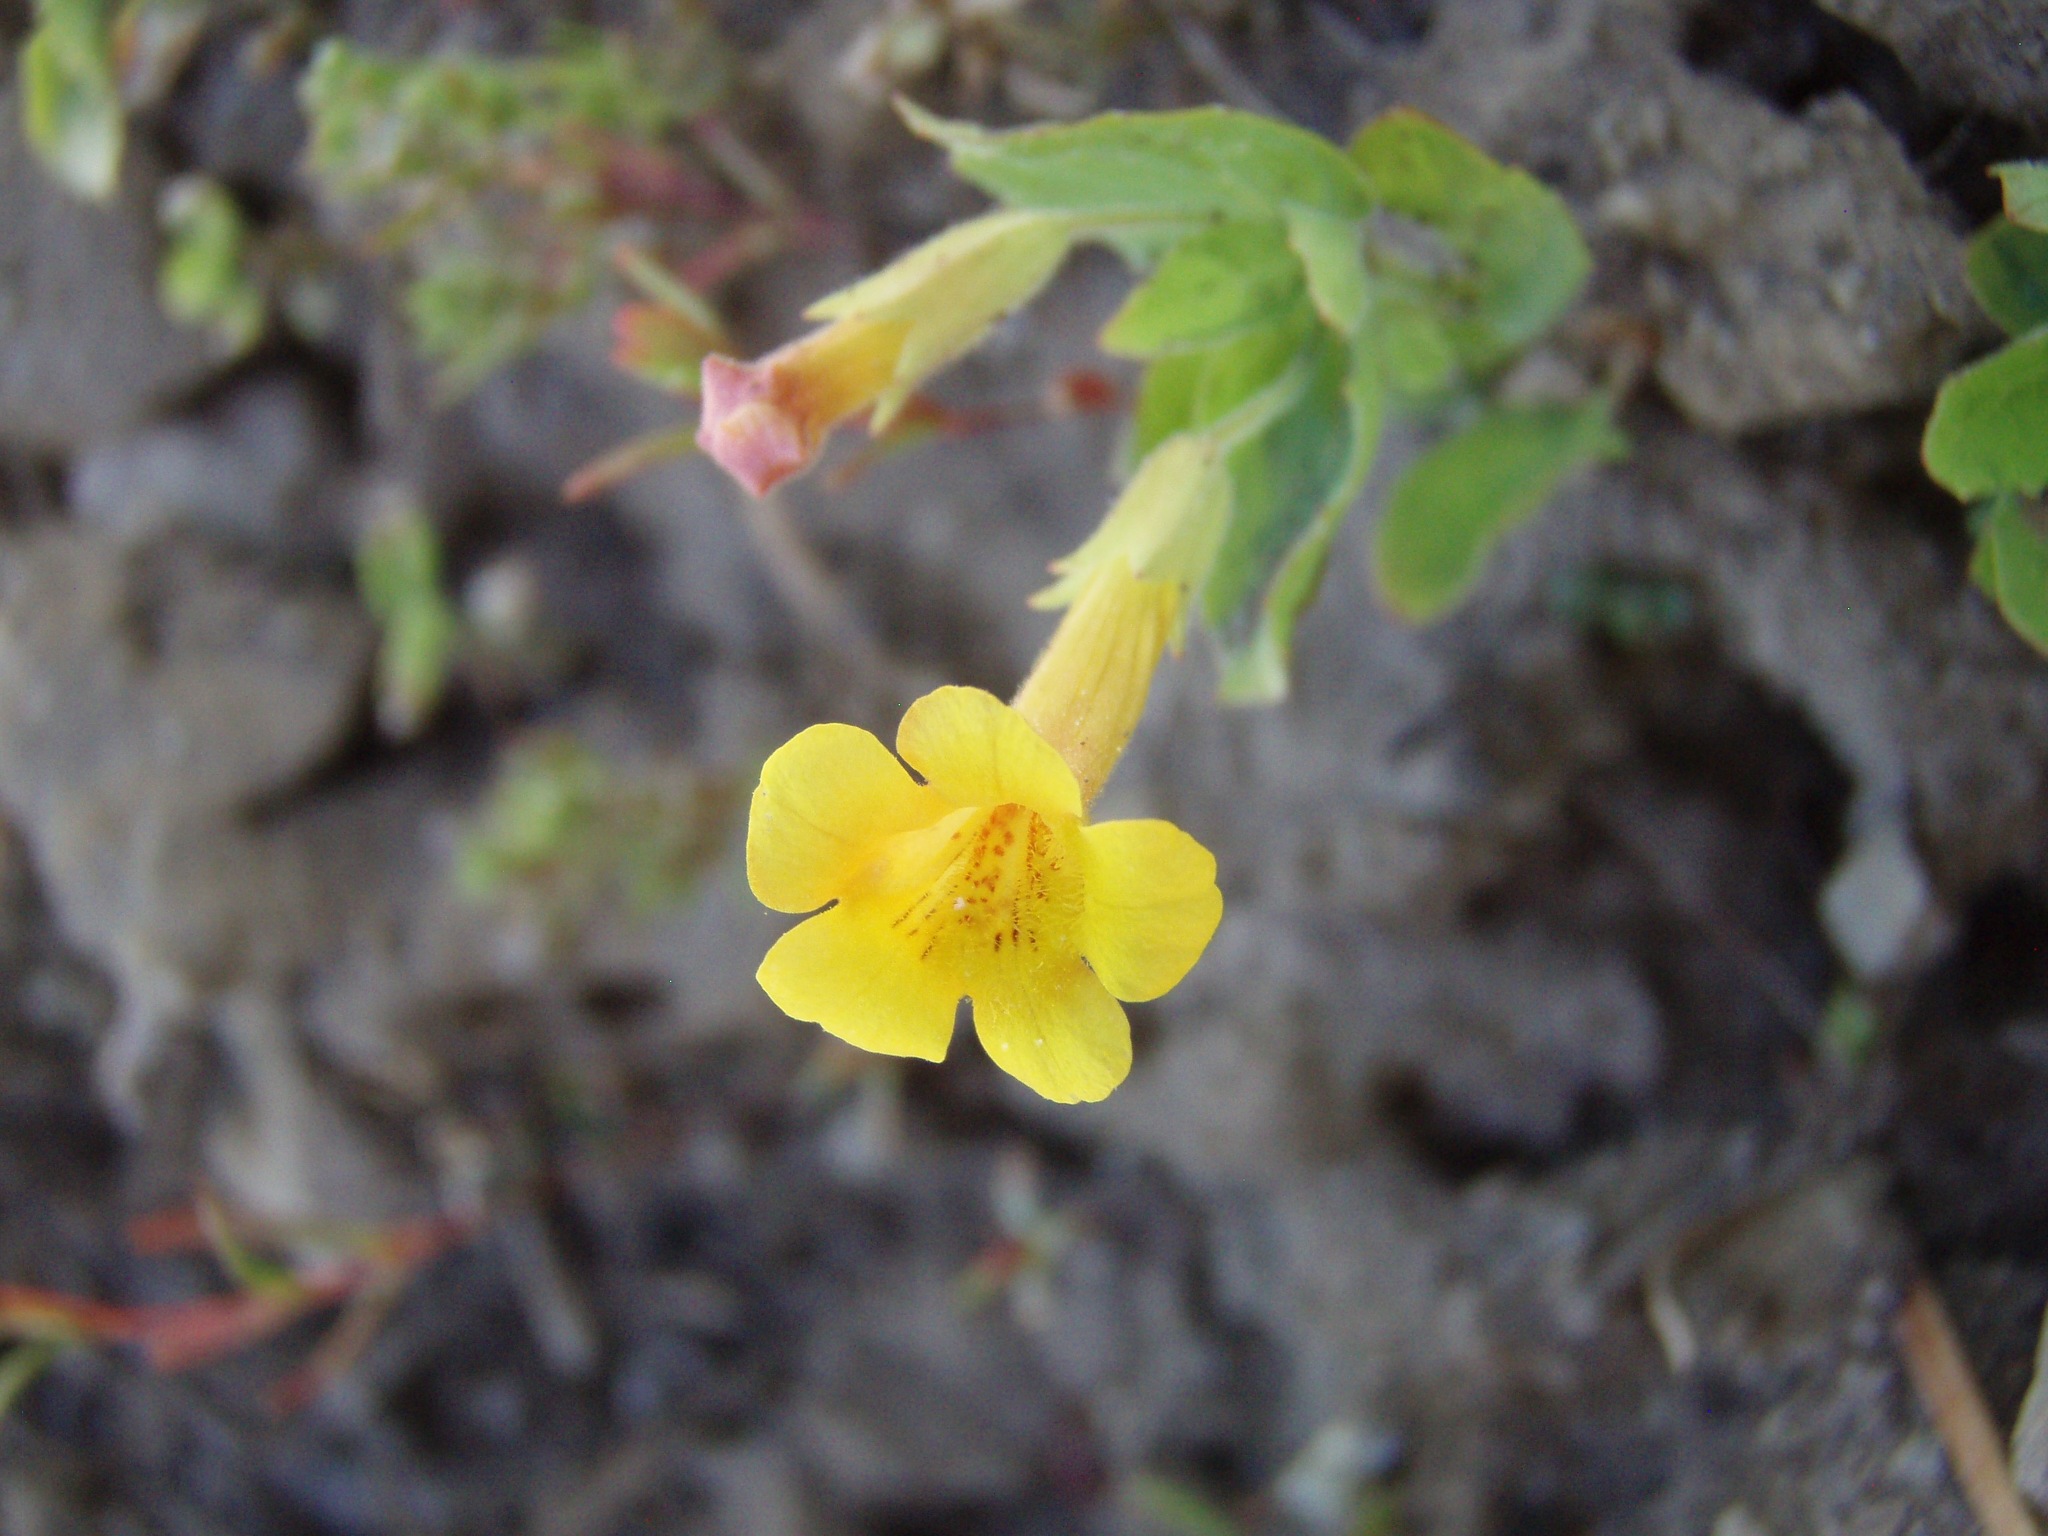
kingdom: Plantae
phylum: Tracheophyta
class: Magnoliopsida
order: Lamiales
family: Phrymaceae
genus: Erythranthe
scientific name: Erythranthe moschata
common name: Muskflower
